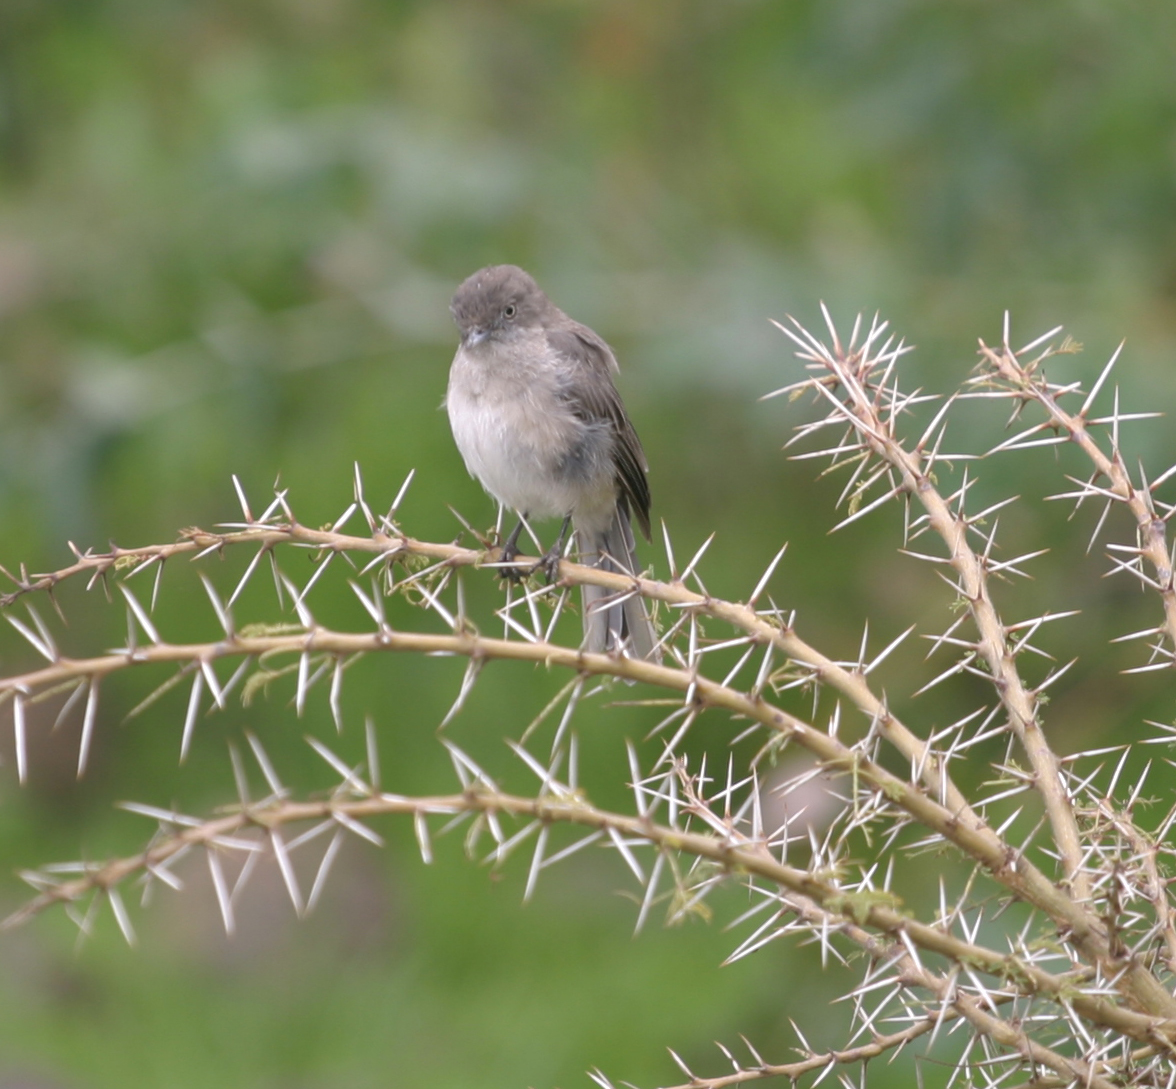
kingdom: Animalia
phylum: Chordata
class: Aves
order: Passeriformes
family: Muscicapidae
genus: Dioptrornis
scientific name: Dioptrornis chocolatinus
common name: Abyssinian slaty flycatcher
